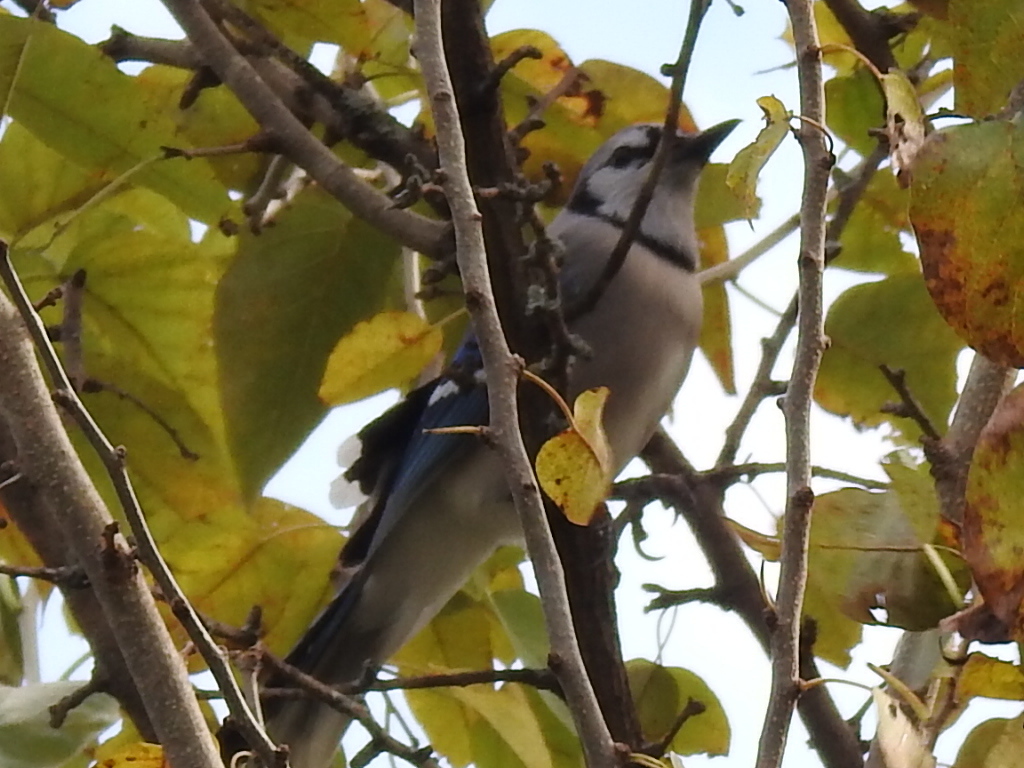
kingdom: Animalia
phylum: Chordata
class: Aves
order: Passeriformes
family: Corvidae
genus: Cyanocitta
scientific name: Cyanocitta cristata
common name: Blue jay
